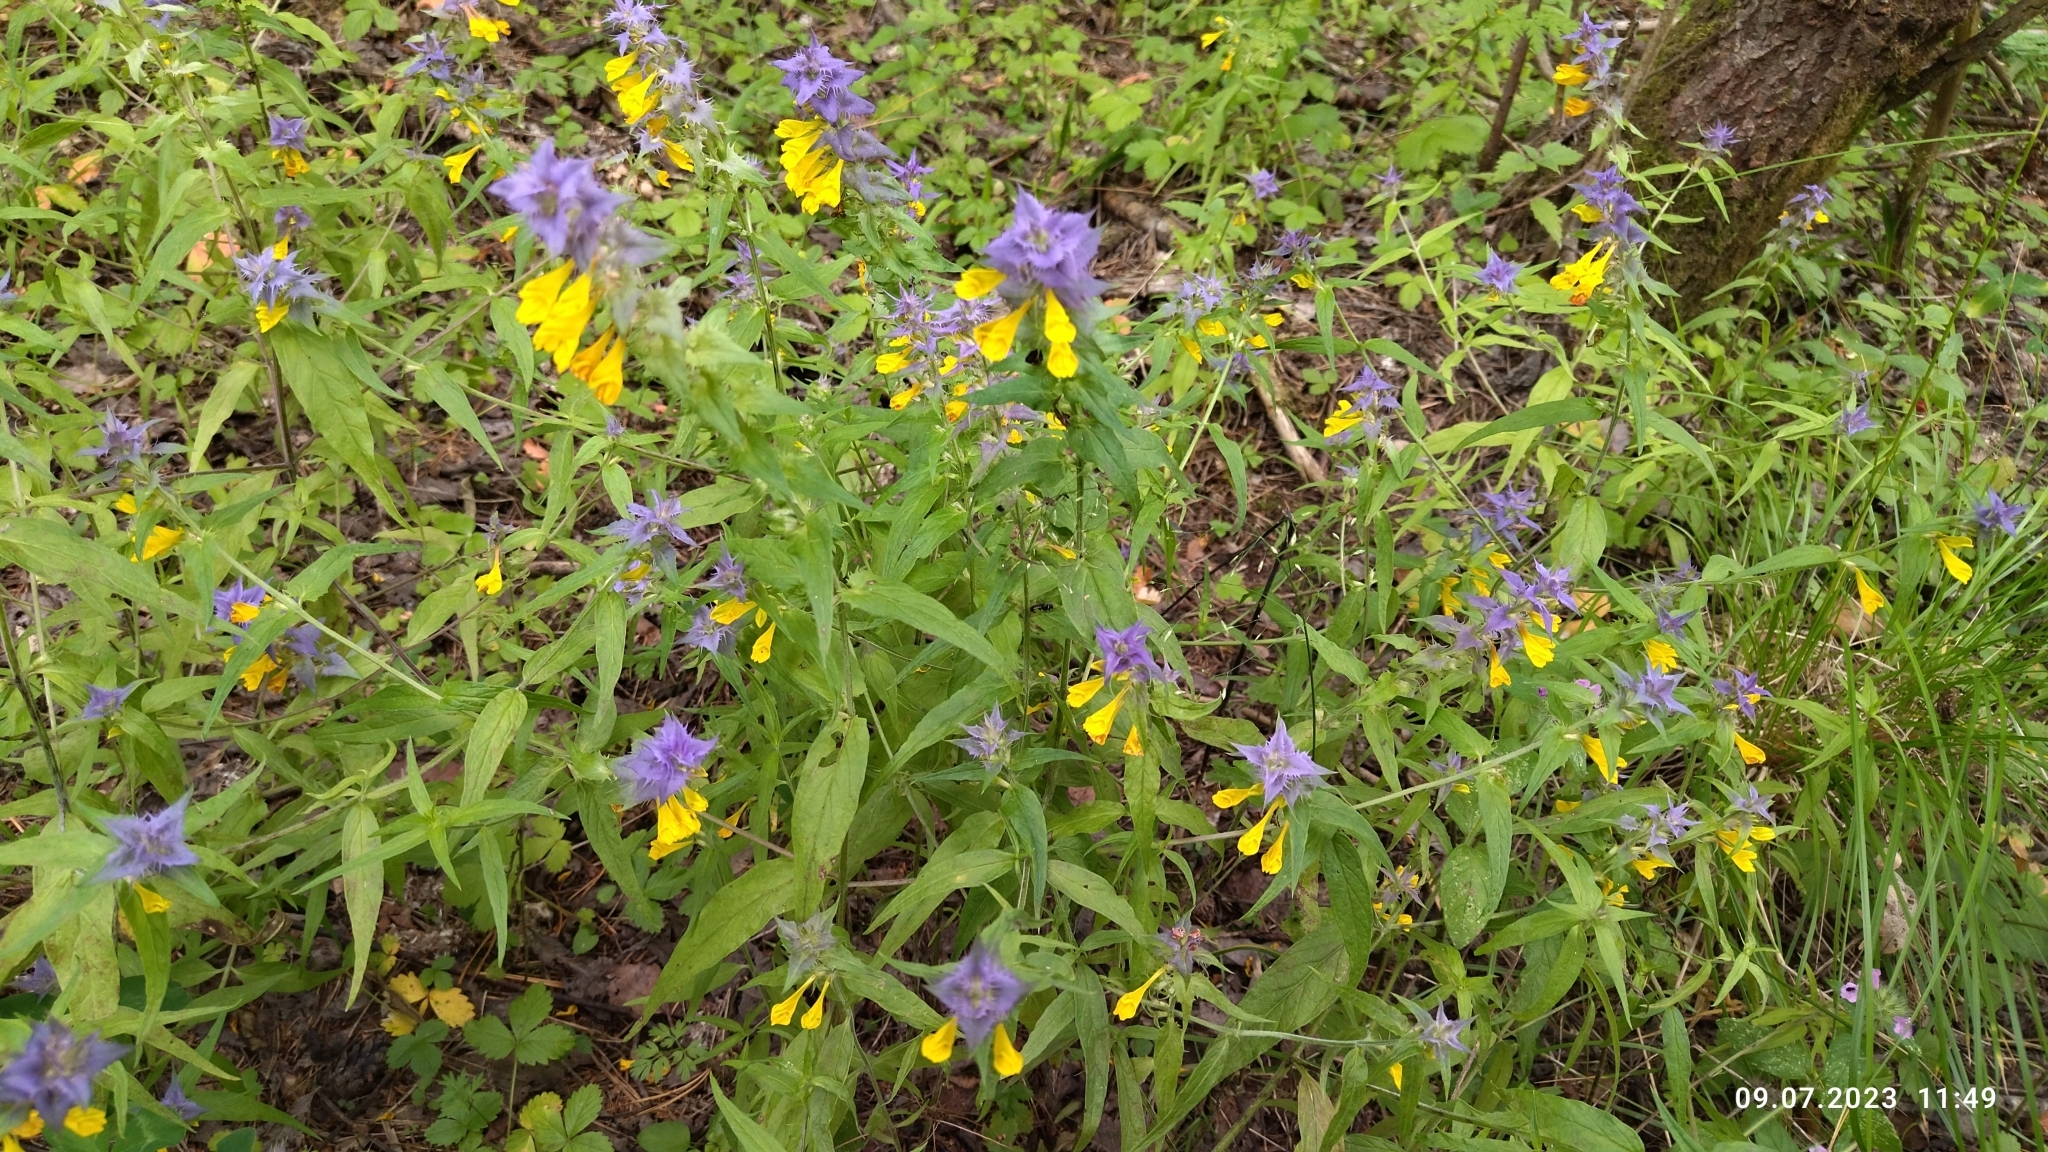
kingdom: Plantae
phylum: Tracheophyta
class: Magnoliopsida
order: Lamiales
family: Orobanchaceae
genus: Melampyrum
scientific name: Melampyrum nemorosum
